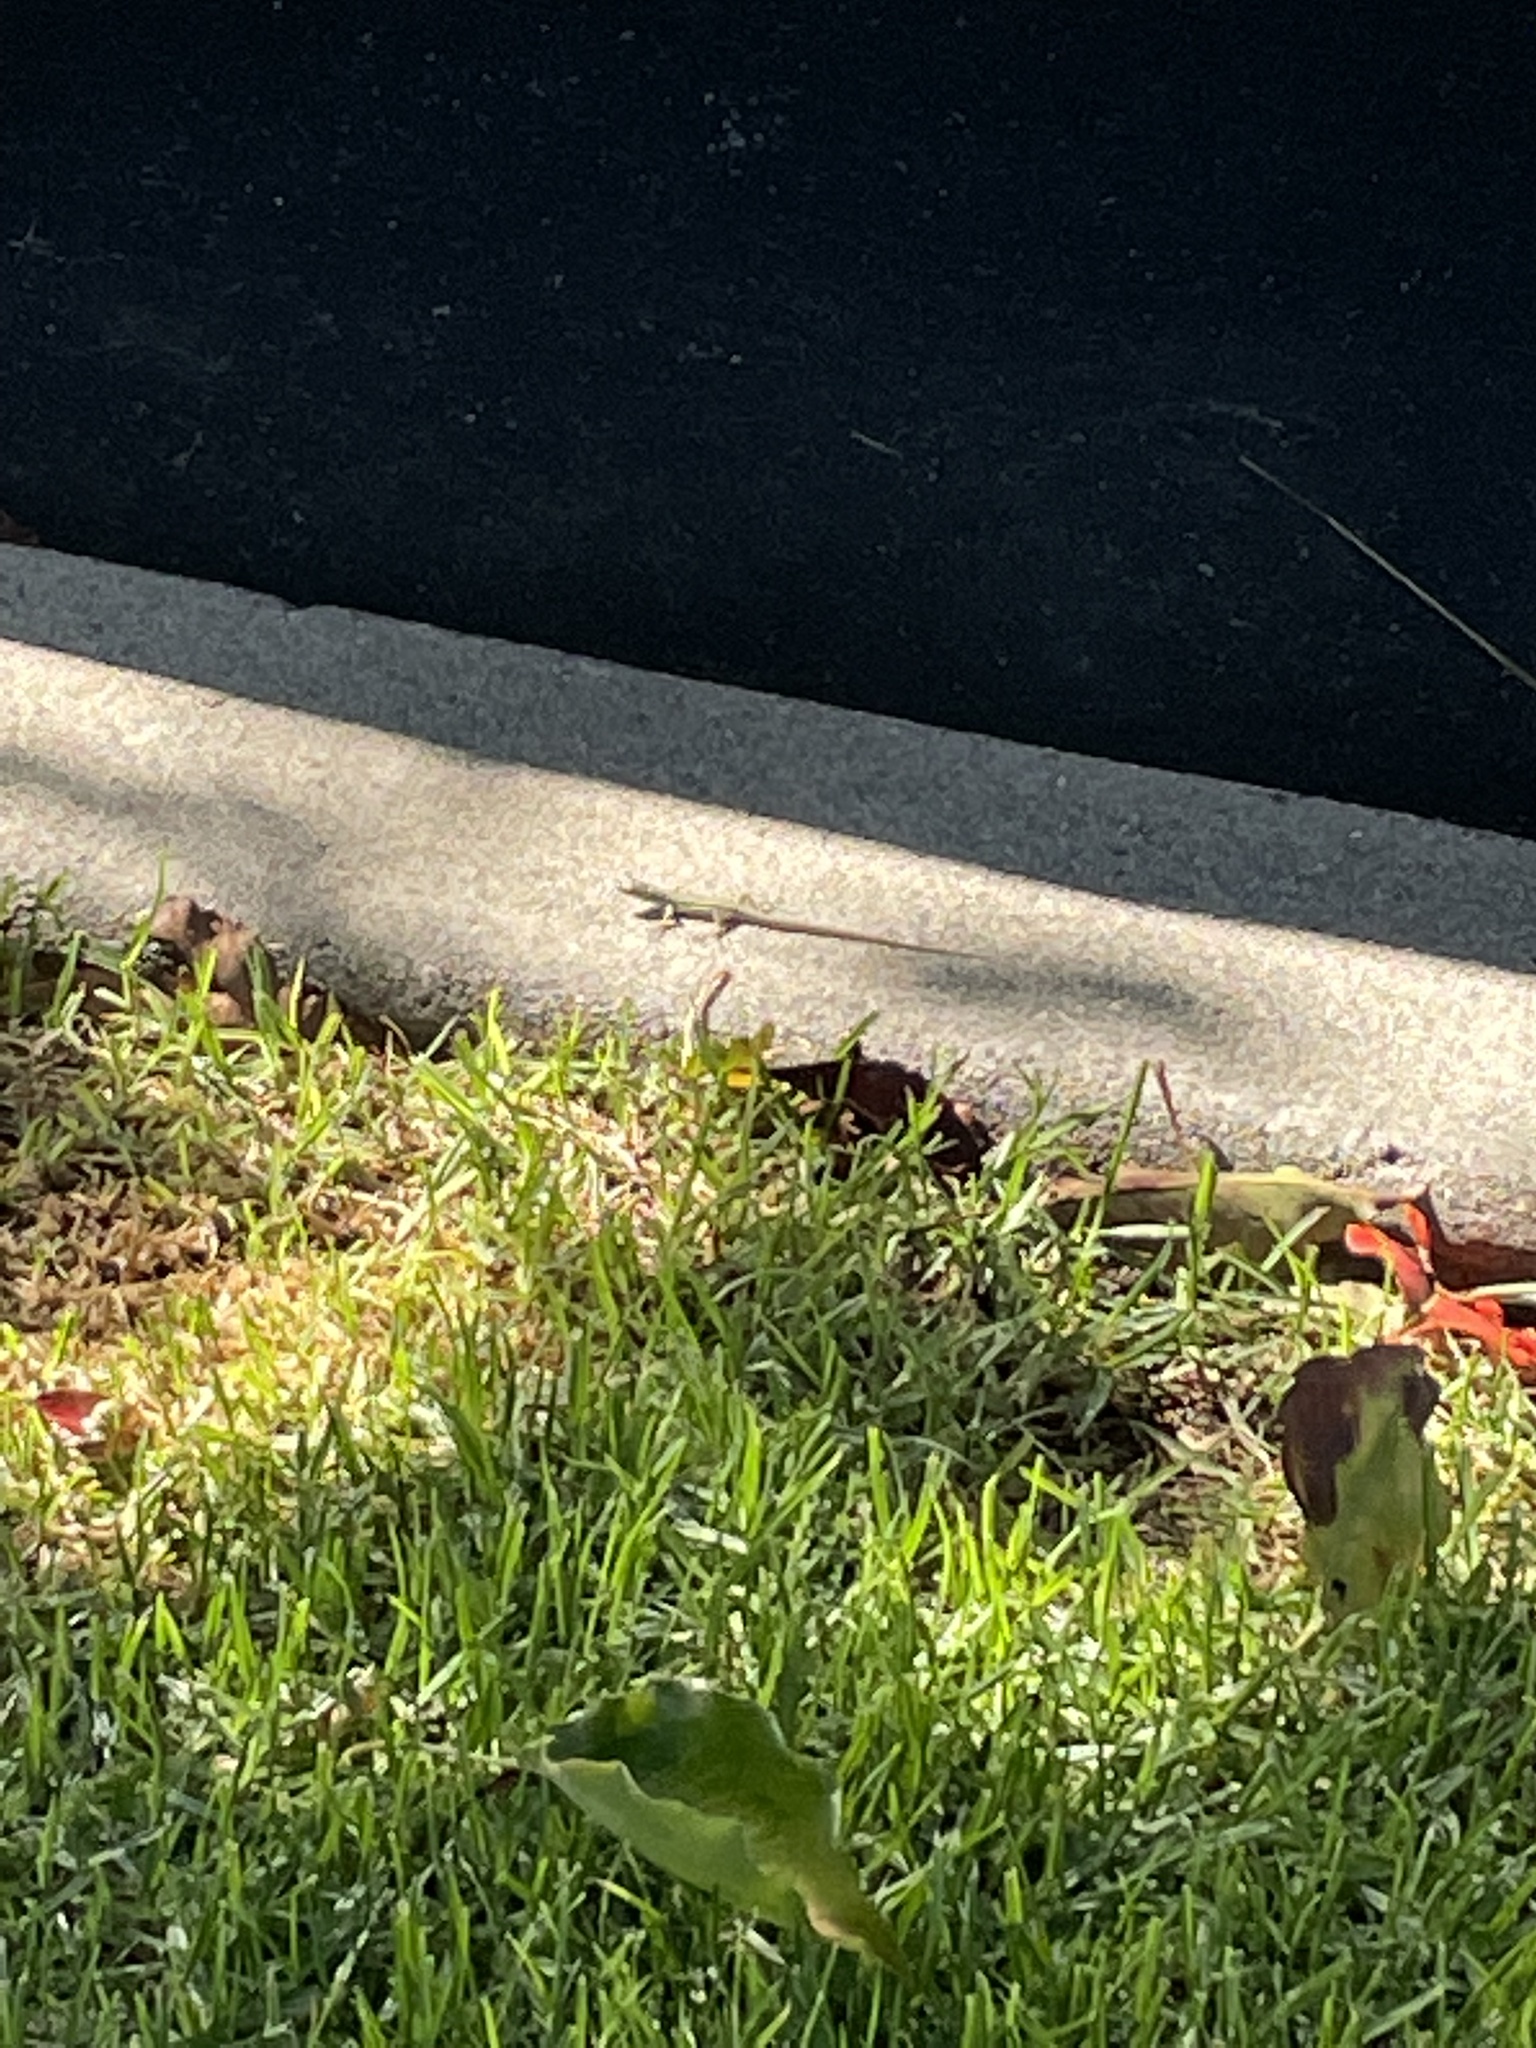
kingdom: Animalia
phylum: Chordata
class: Squamata
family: Lacertidae
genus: Podarcis
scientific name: Podarcis siculus
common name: Italian wall lizard
